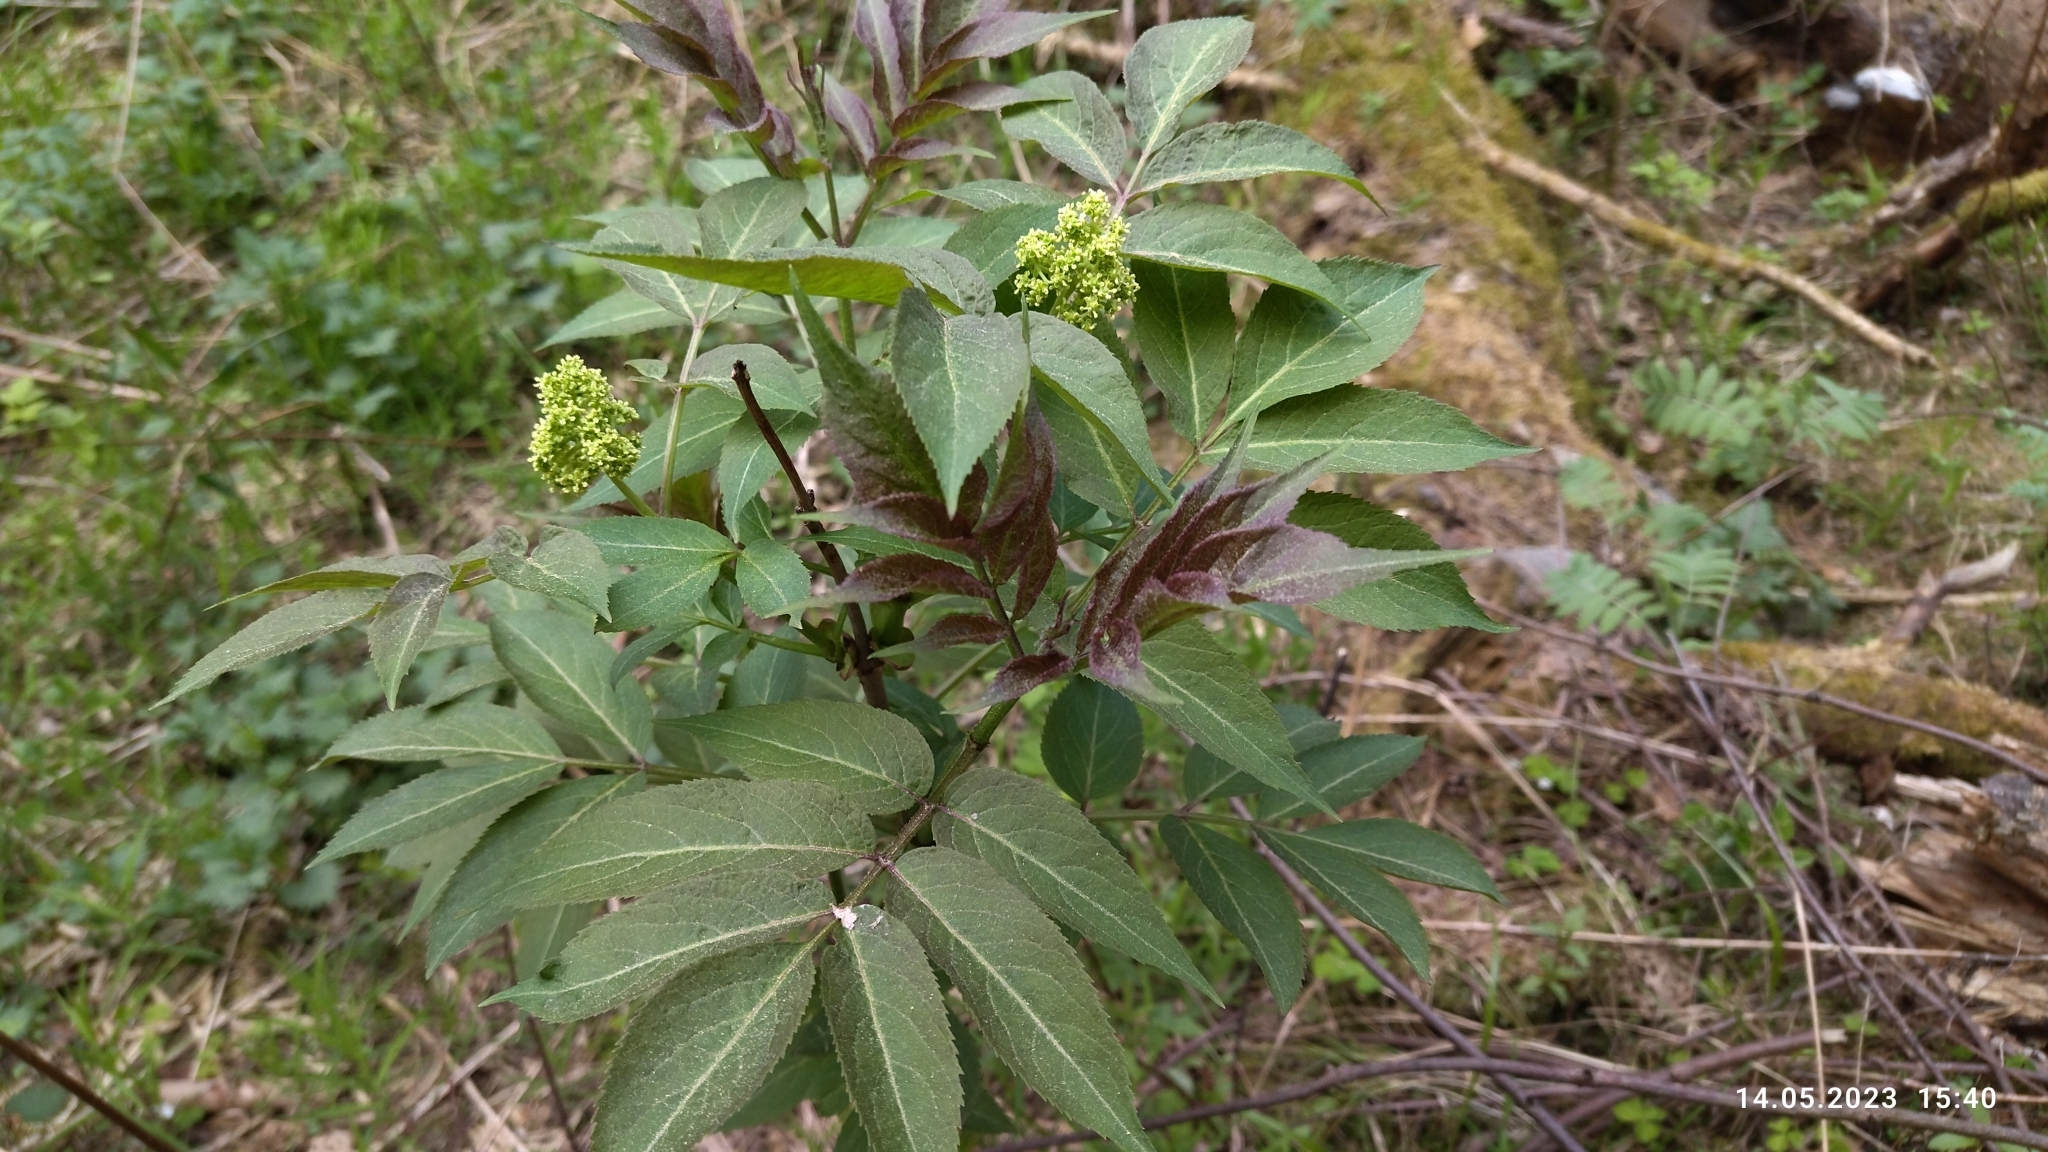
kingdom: Plantae
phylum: Tracheophyta
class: Magnoliopsida
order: Dipsacales
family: Viburnaceae
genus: Sambucus
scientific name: Sambucus racemosa
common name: Red-berried elder
